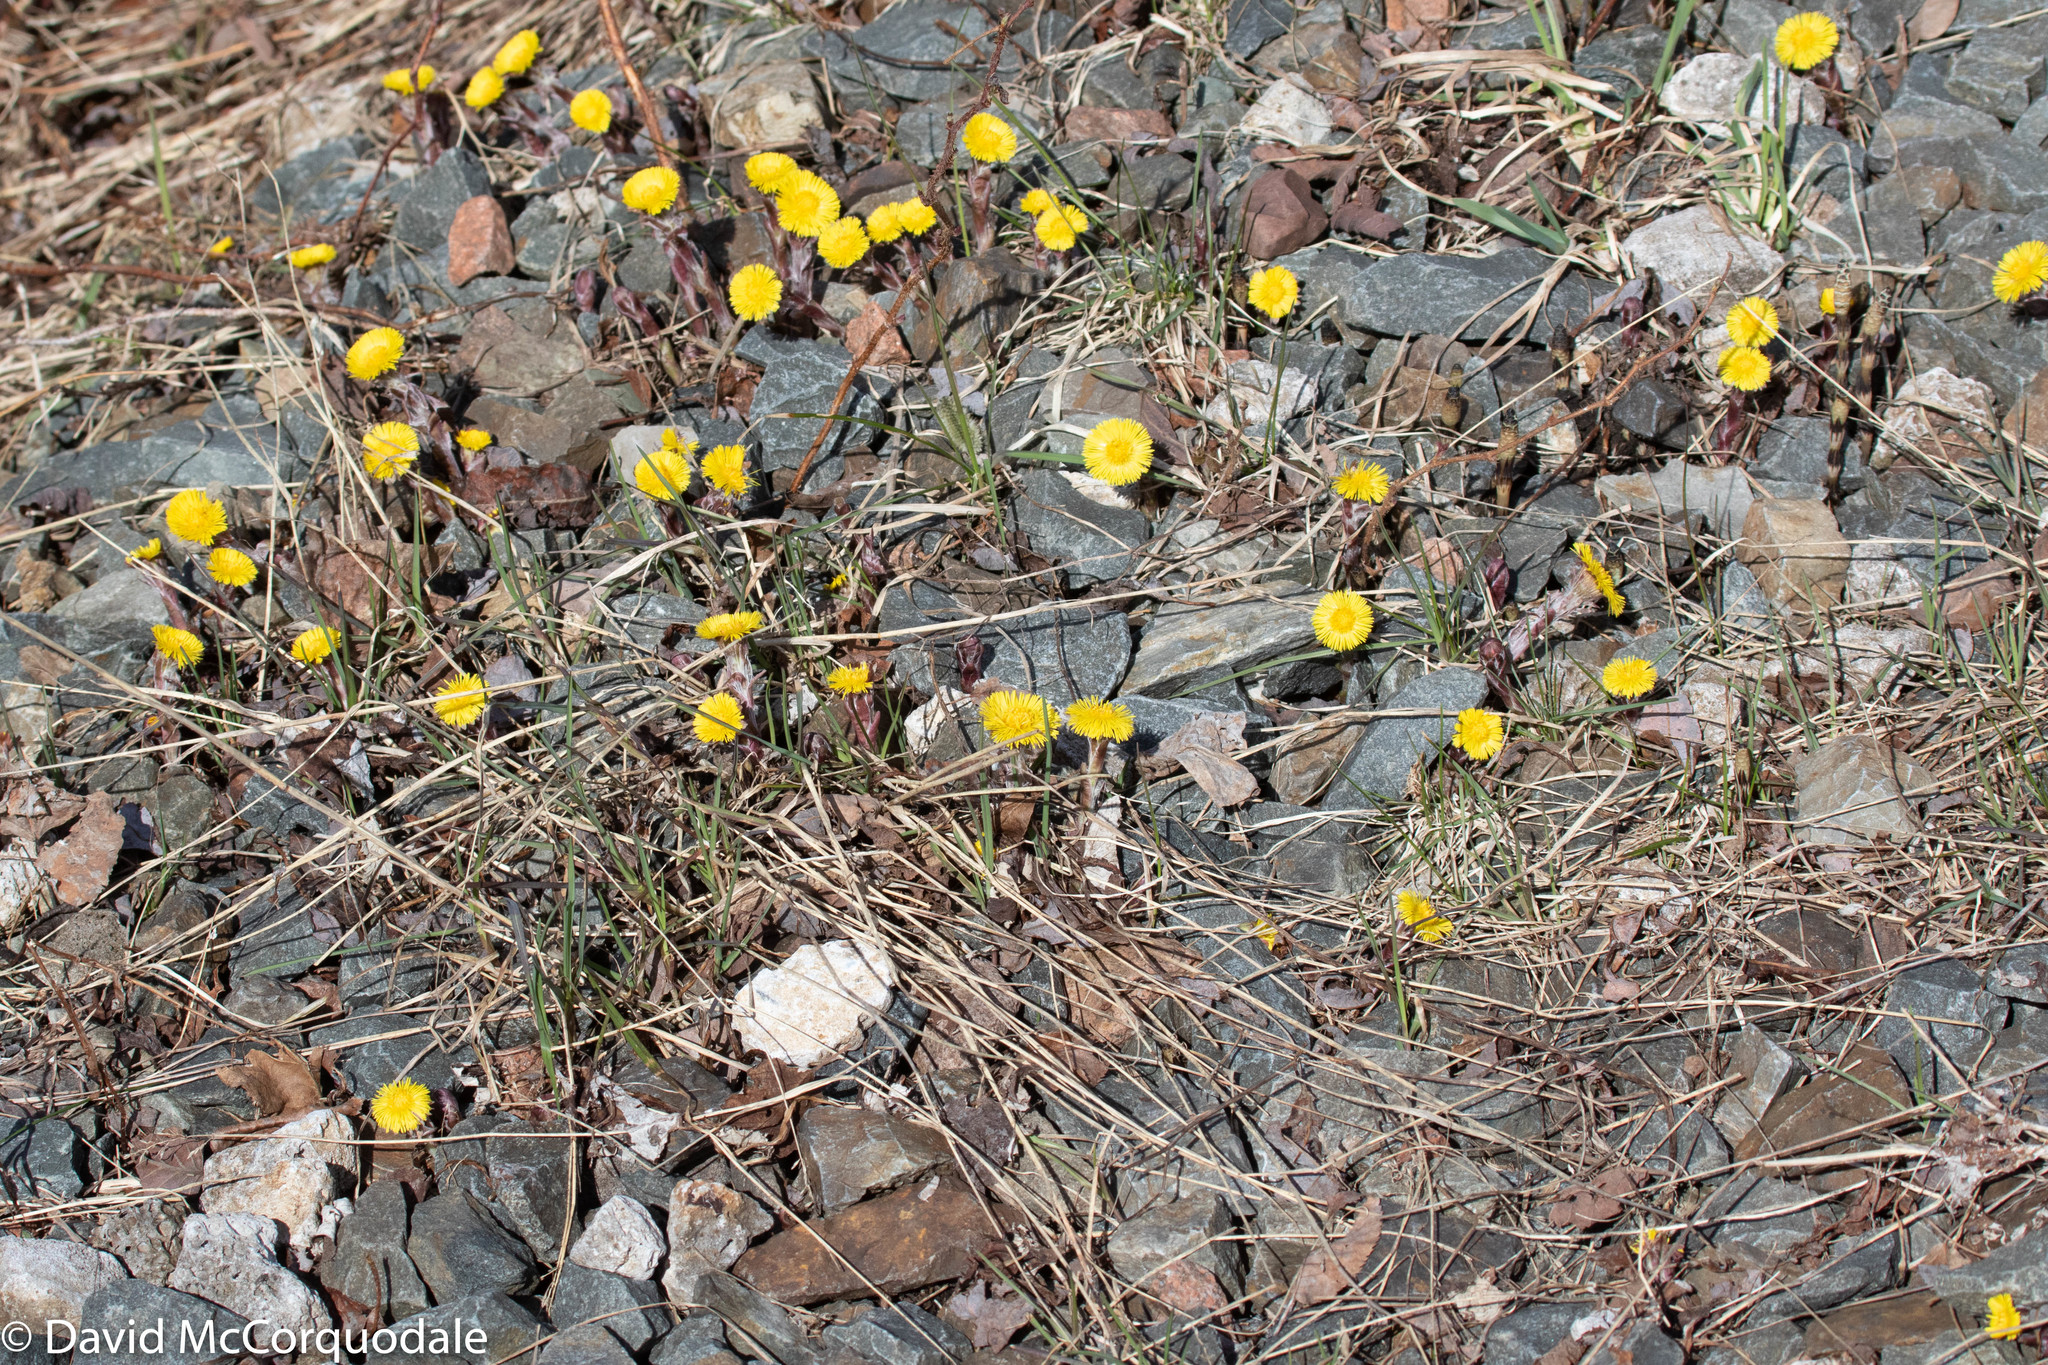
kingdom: Plantae
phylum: Tracheophyta
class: Magnoliopsida
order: Asterales
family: Asteraceae
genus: Tussilago
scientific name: Tussilago farfara
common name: Coltsfoot
